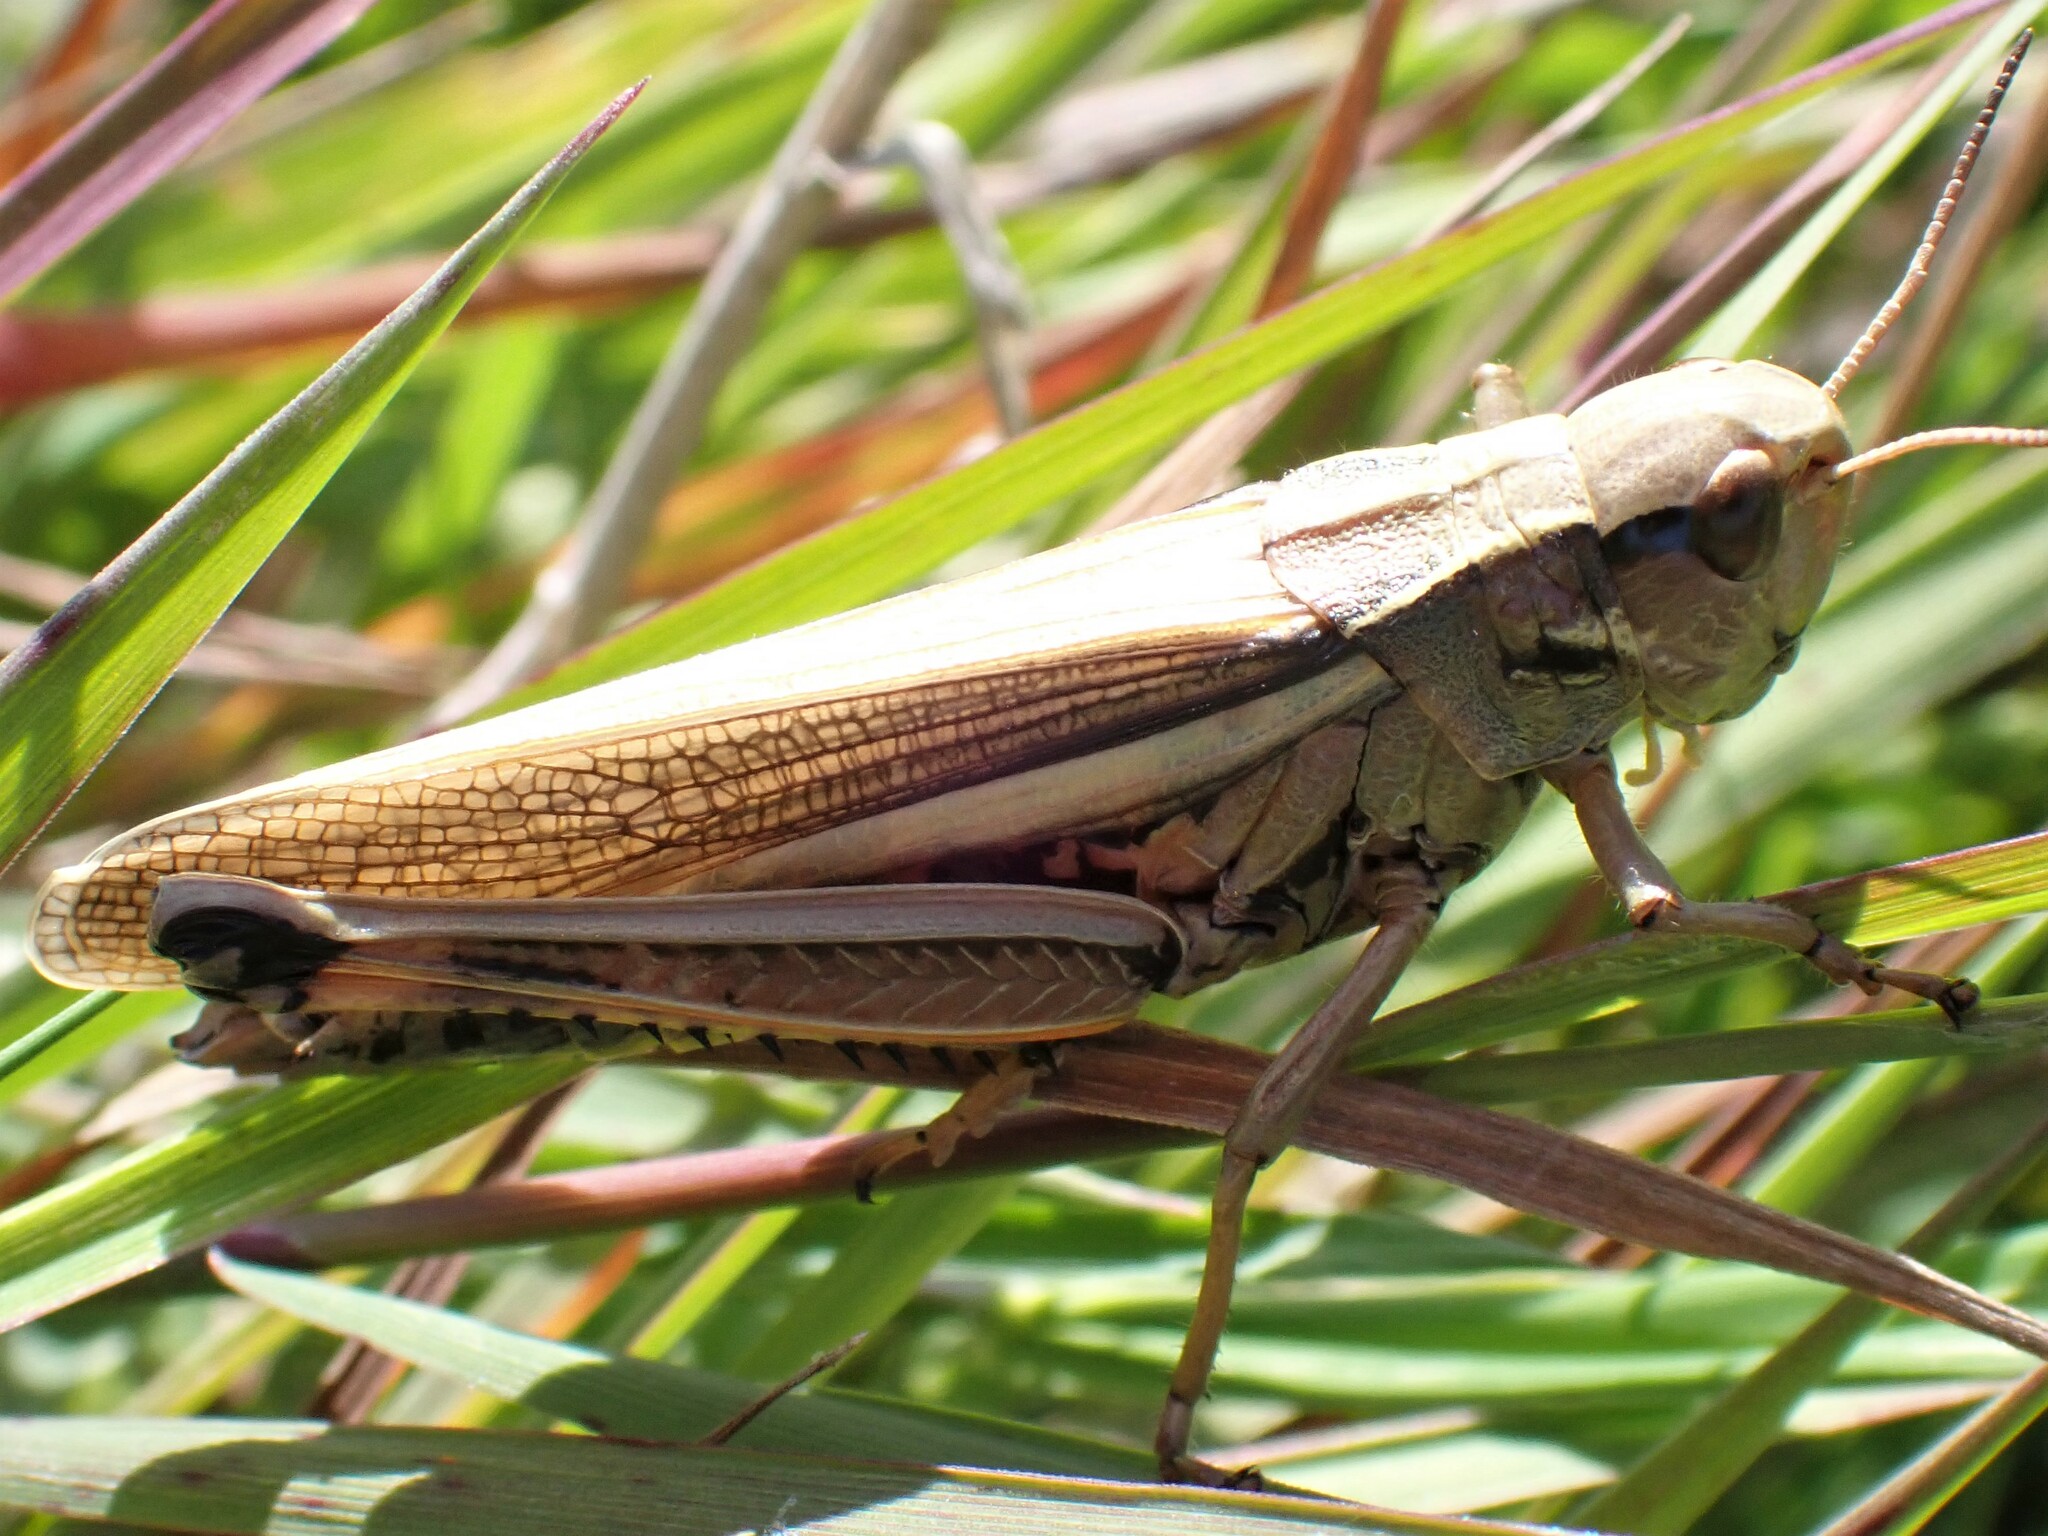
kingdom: Animalia
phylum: Arthropoda
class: Insecta
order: Orthoptera
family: Acrididae
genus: Stethophyma
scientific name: Stethophyma grossum
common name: Large marsh grasshopper
